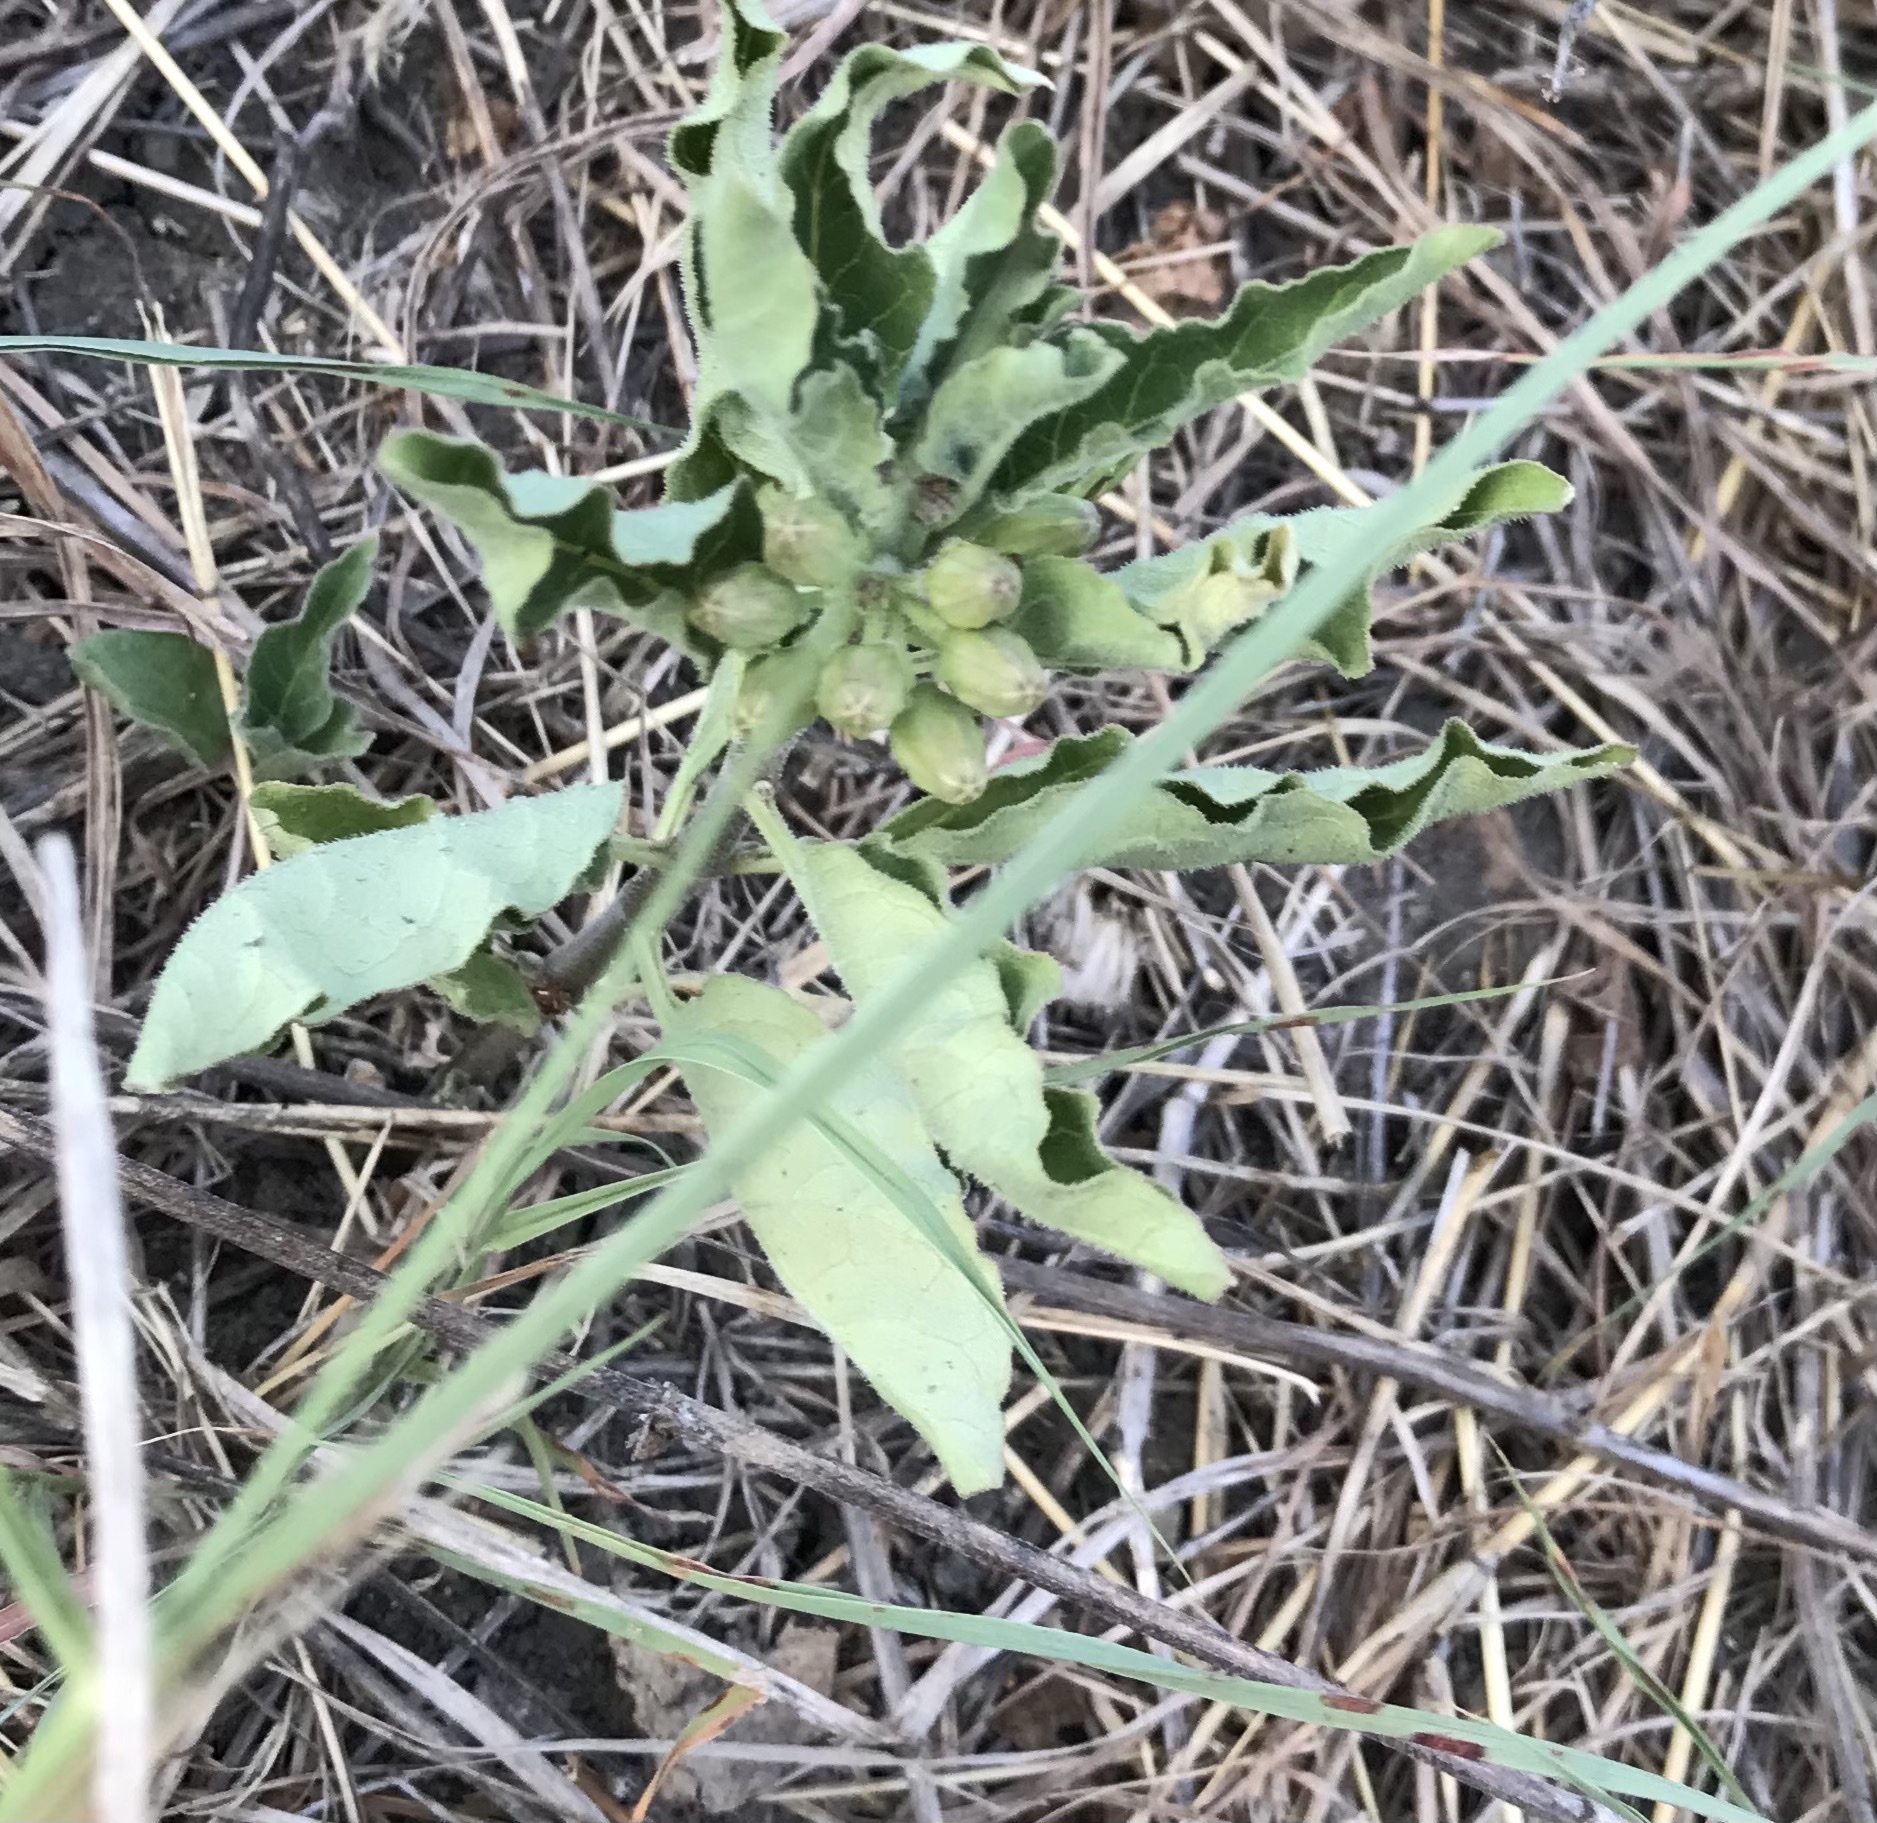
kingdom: Plantae
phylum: Tracheophyta
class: Magnoliopsida
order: Gentianales
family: Apocynaceae
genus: Asclepias
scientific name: Asclepias oenotheroides
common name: Zizotes milkweed
